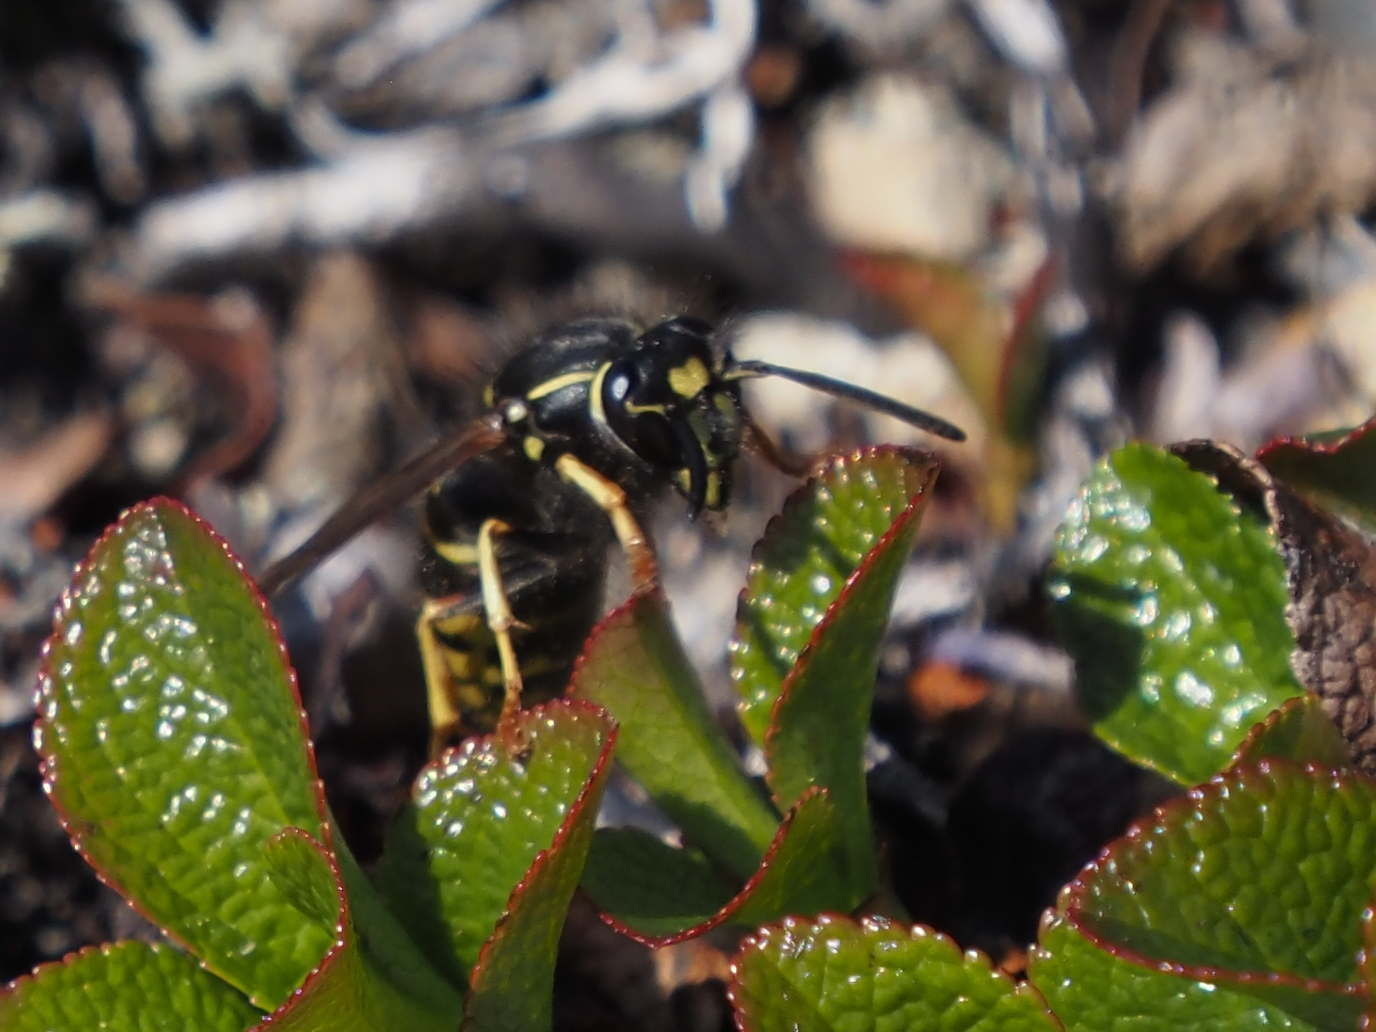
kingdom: Animalia
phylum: Arthropoda
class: Insecta
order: Hymenoptera
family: Vespidae
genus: Vespula
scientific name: Vespula acadica
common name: Forest yellowjacket
